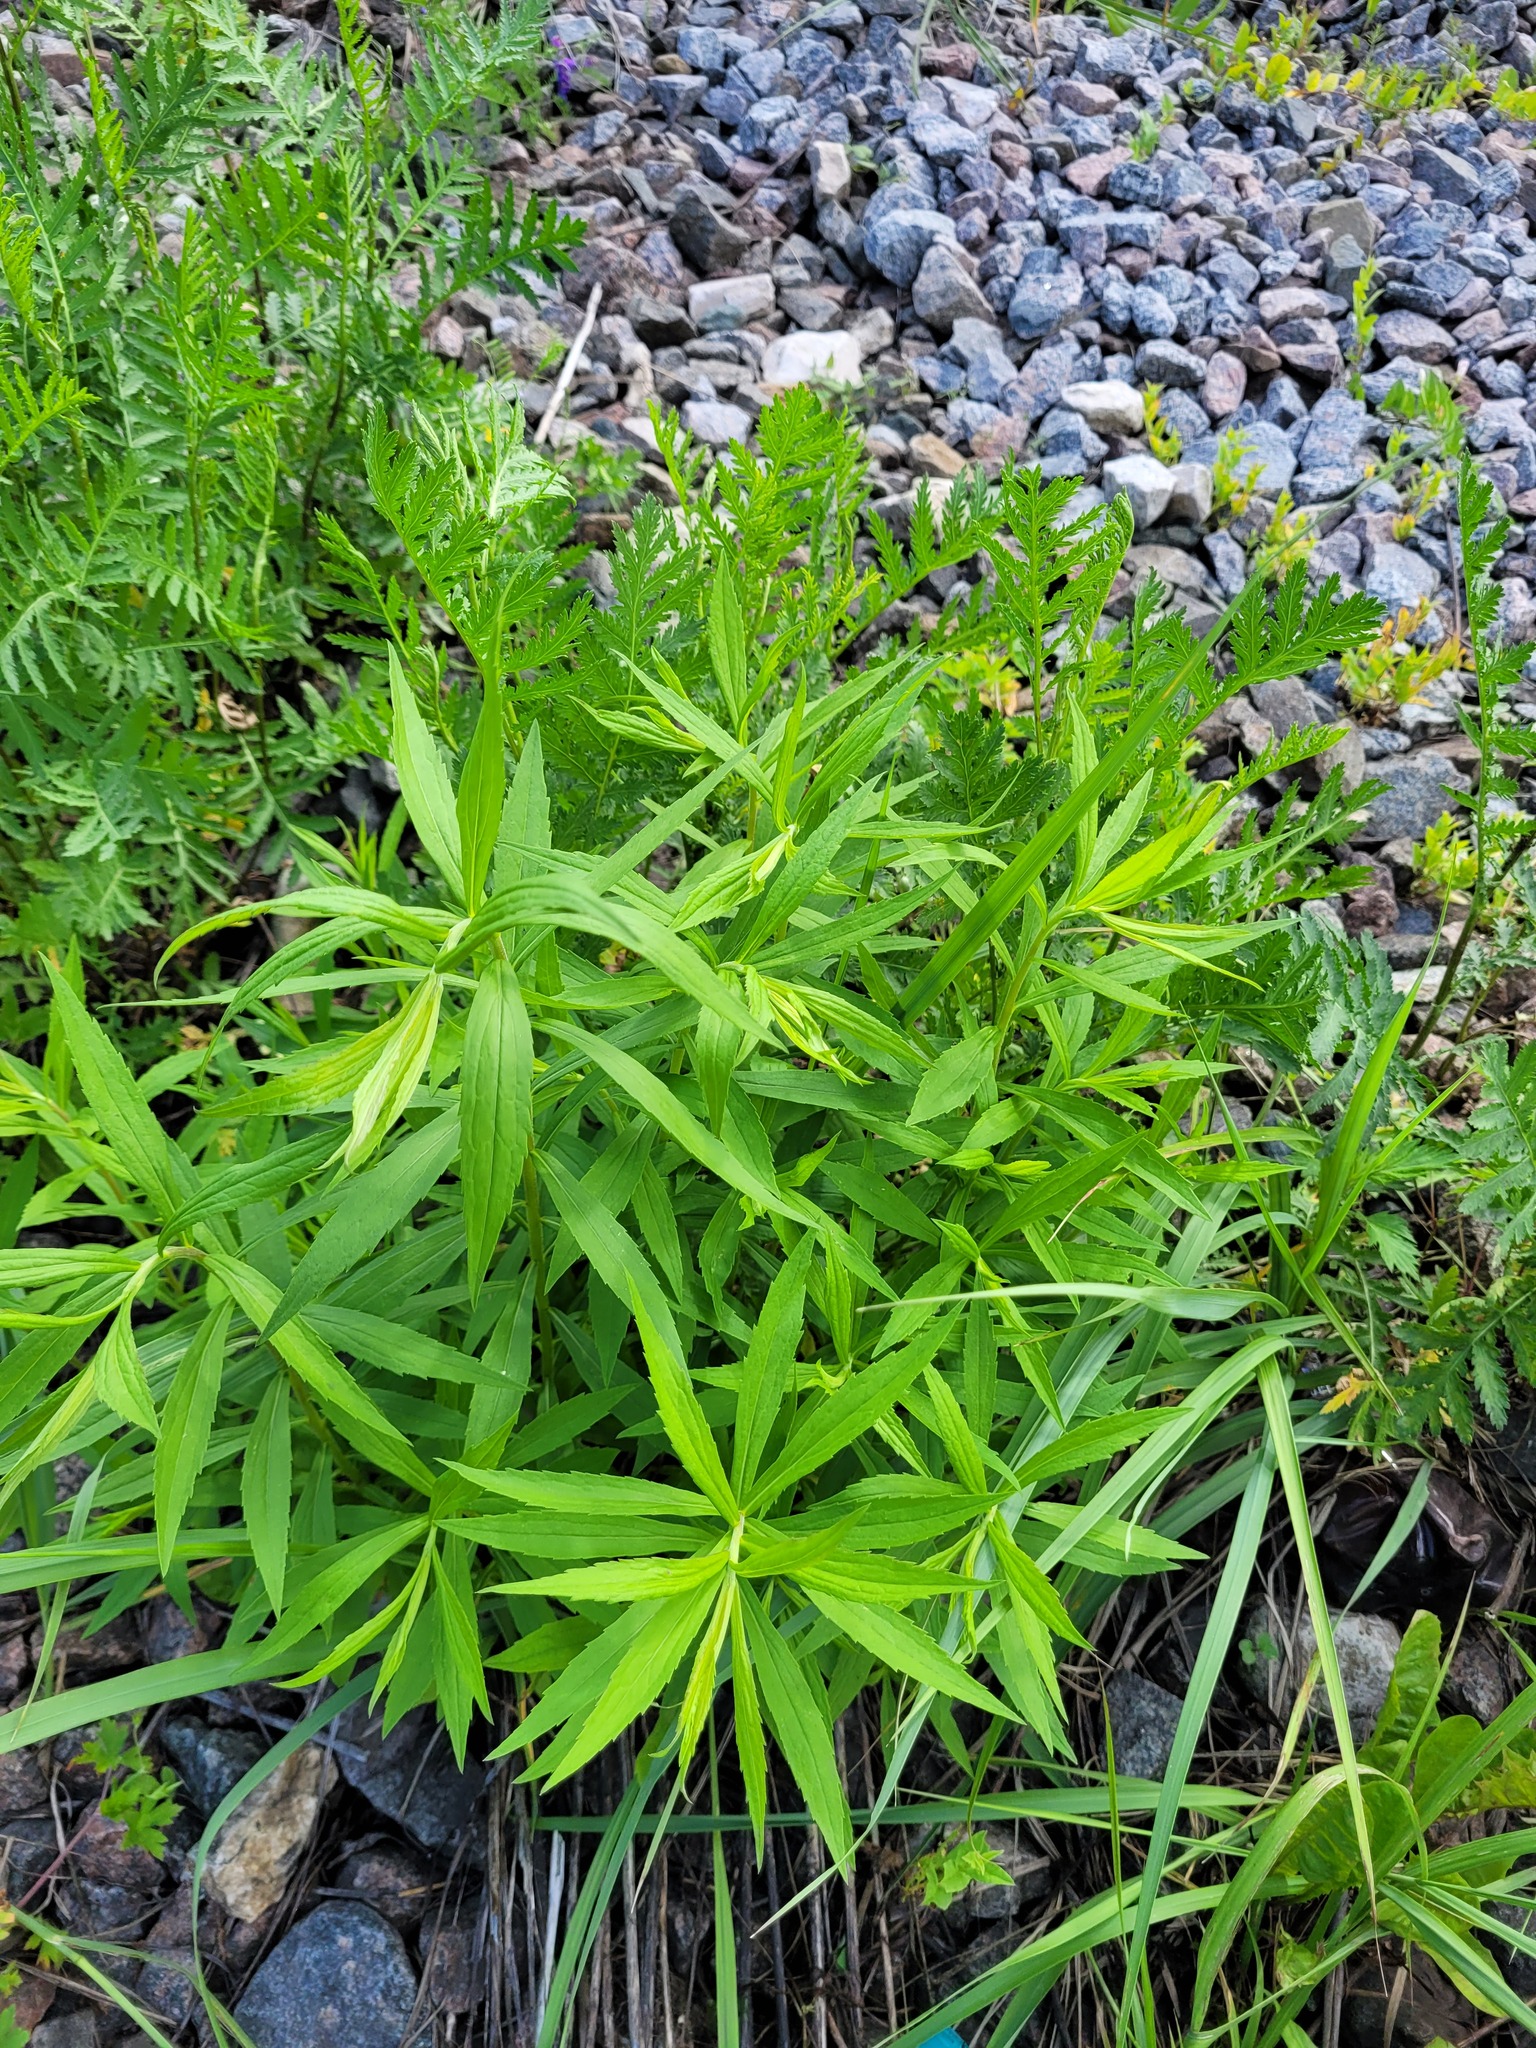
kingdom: Plantae
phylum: Tracheophyta
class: Magnoliopsida
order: Asterales
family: Asteraceae
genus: Solidago
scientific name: Solidago canadensis
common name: Canada goldenrod
